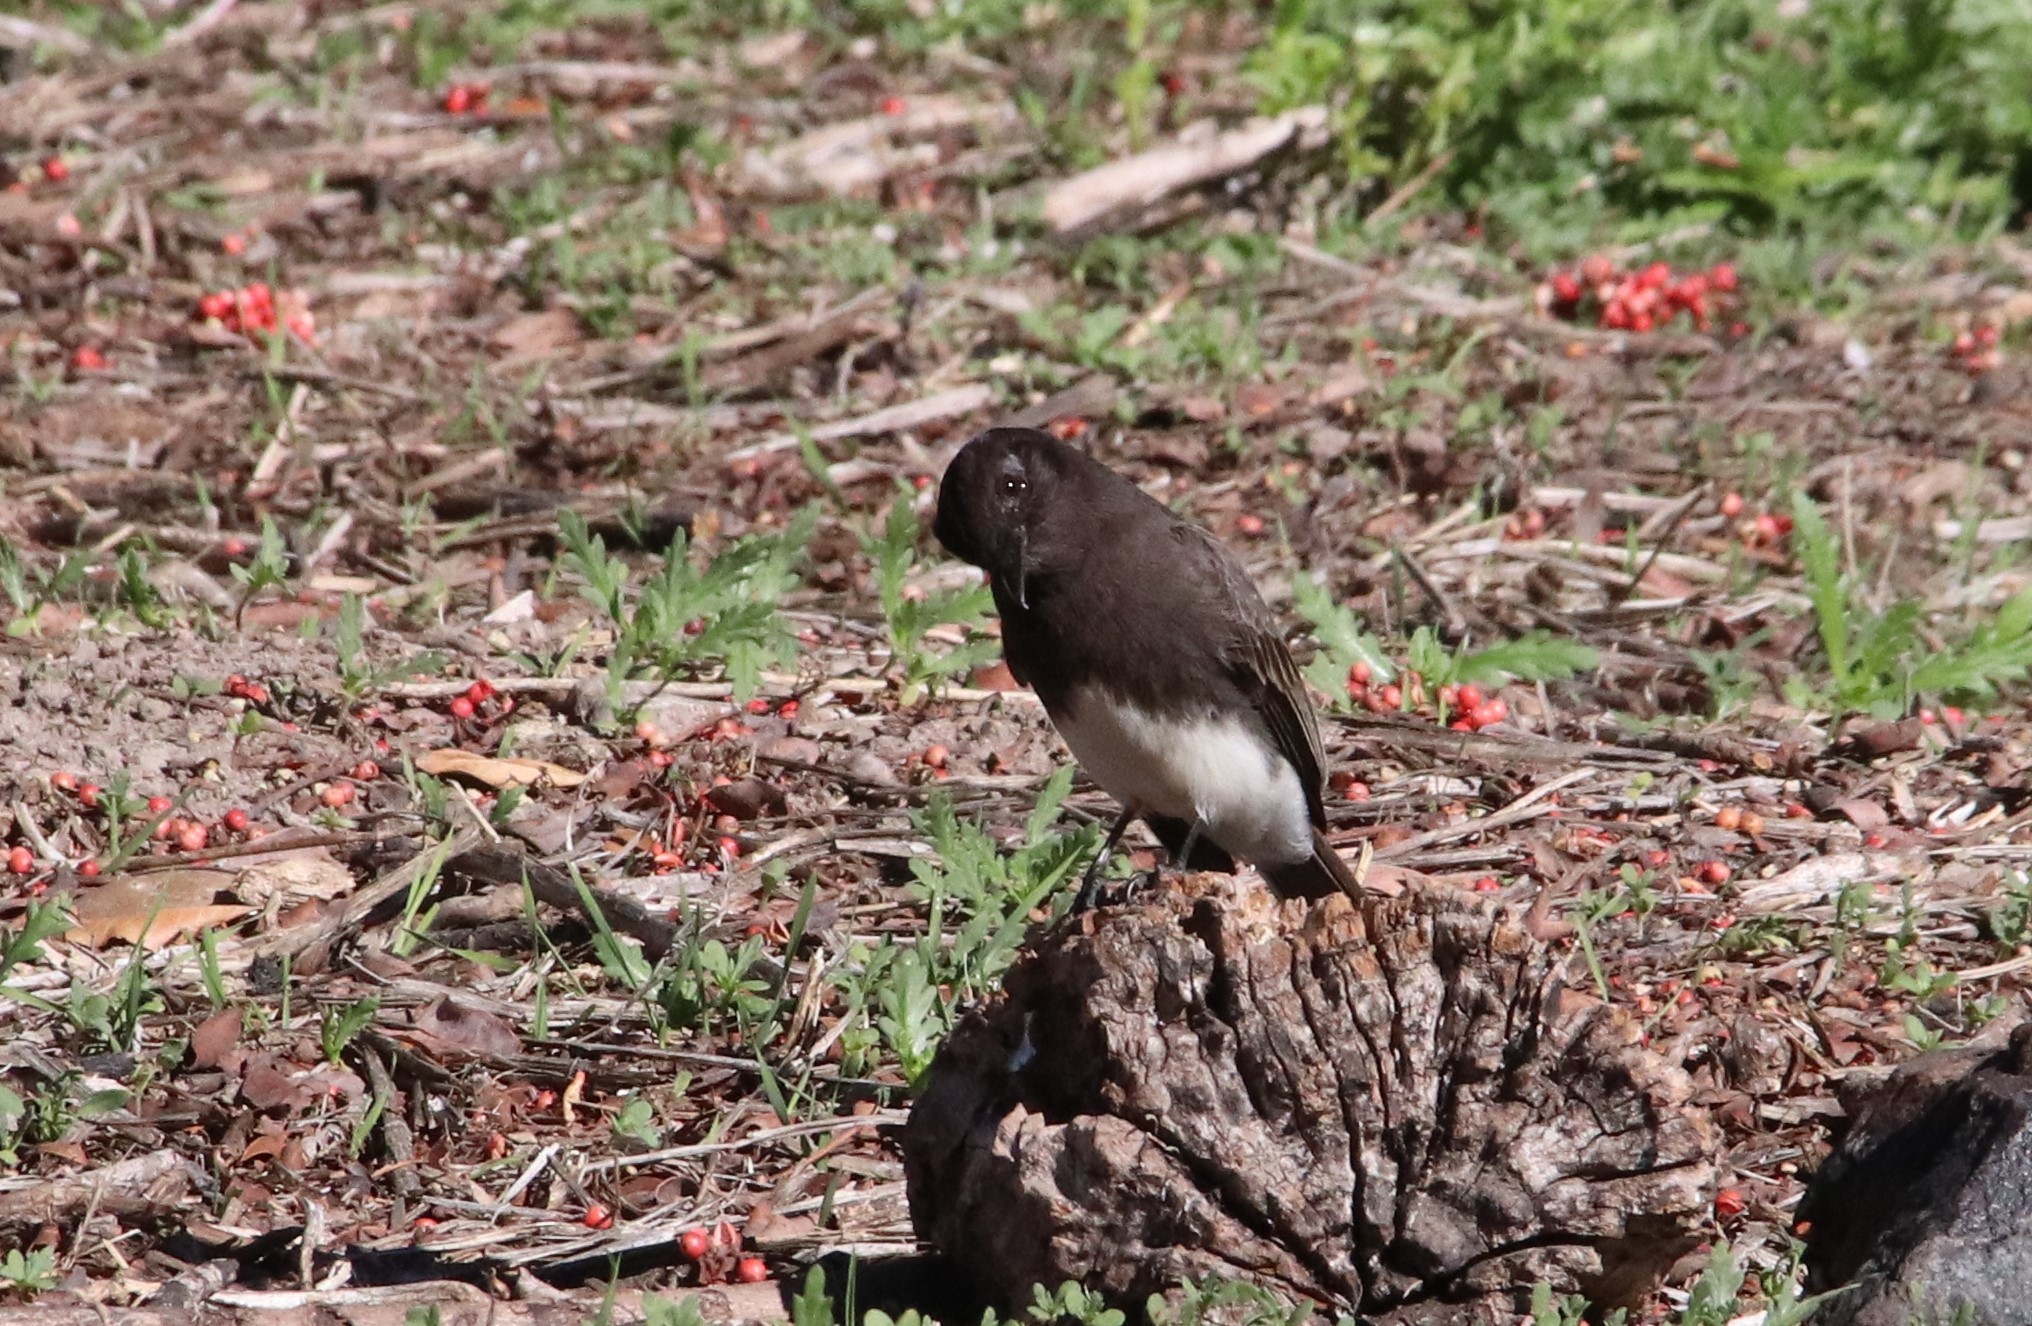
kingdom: Animalia
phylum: Chordata
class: Aves
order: Passeriformes
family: Tyrannidae
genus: Sayornis
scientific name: Sayornis nigricans
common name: Black phoebe
